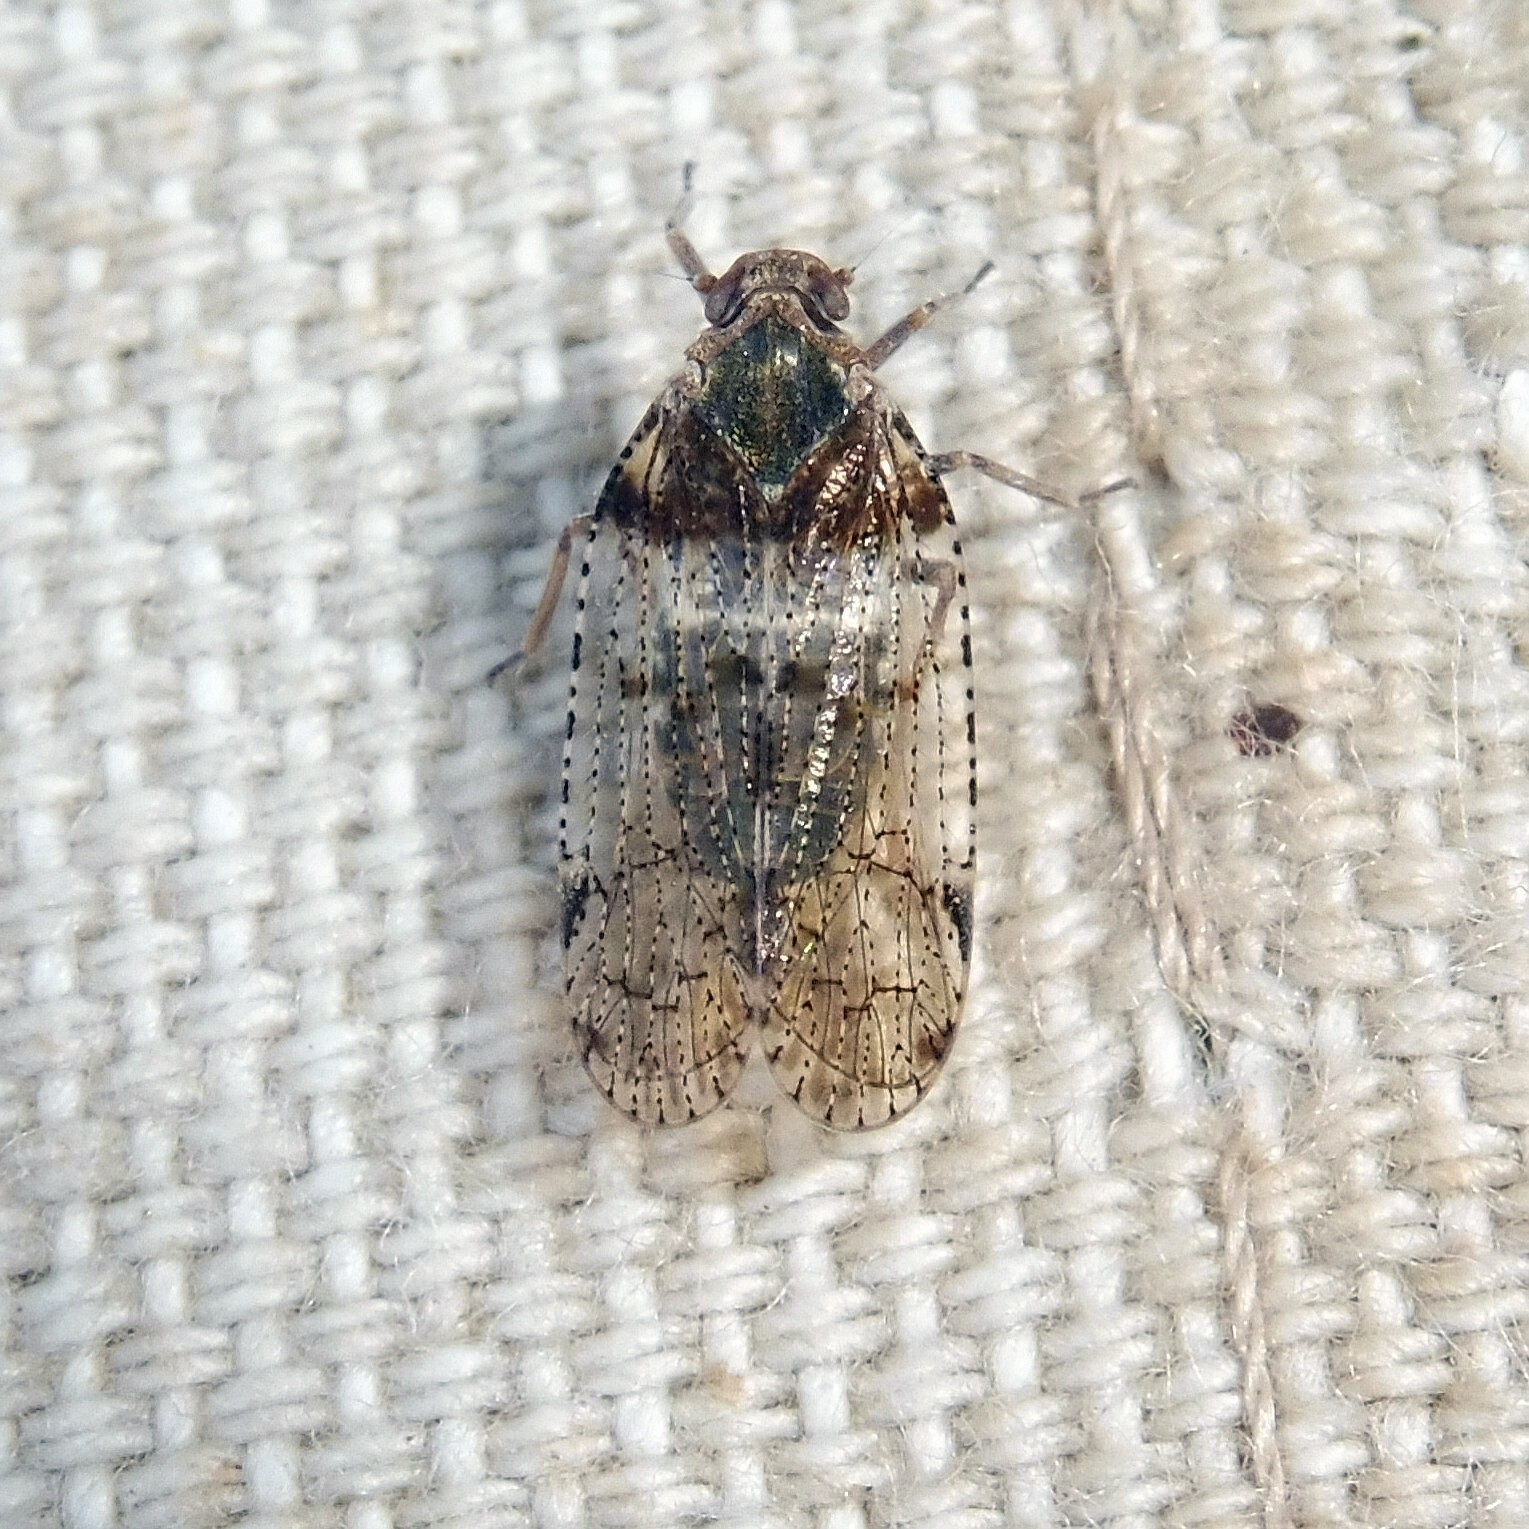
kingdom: Animalia
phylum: Arthropoda
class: Insecta
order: Hemiptera
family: Cixiidae
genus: Cixius
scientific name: Cixius nervosus
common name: Common lacehopper
